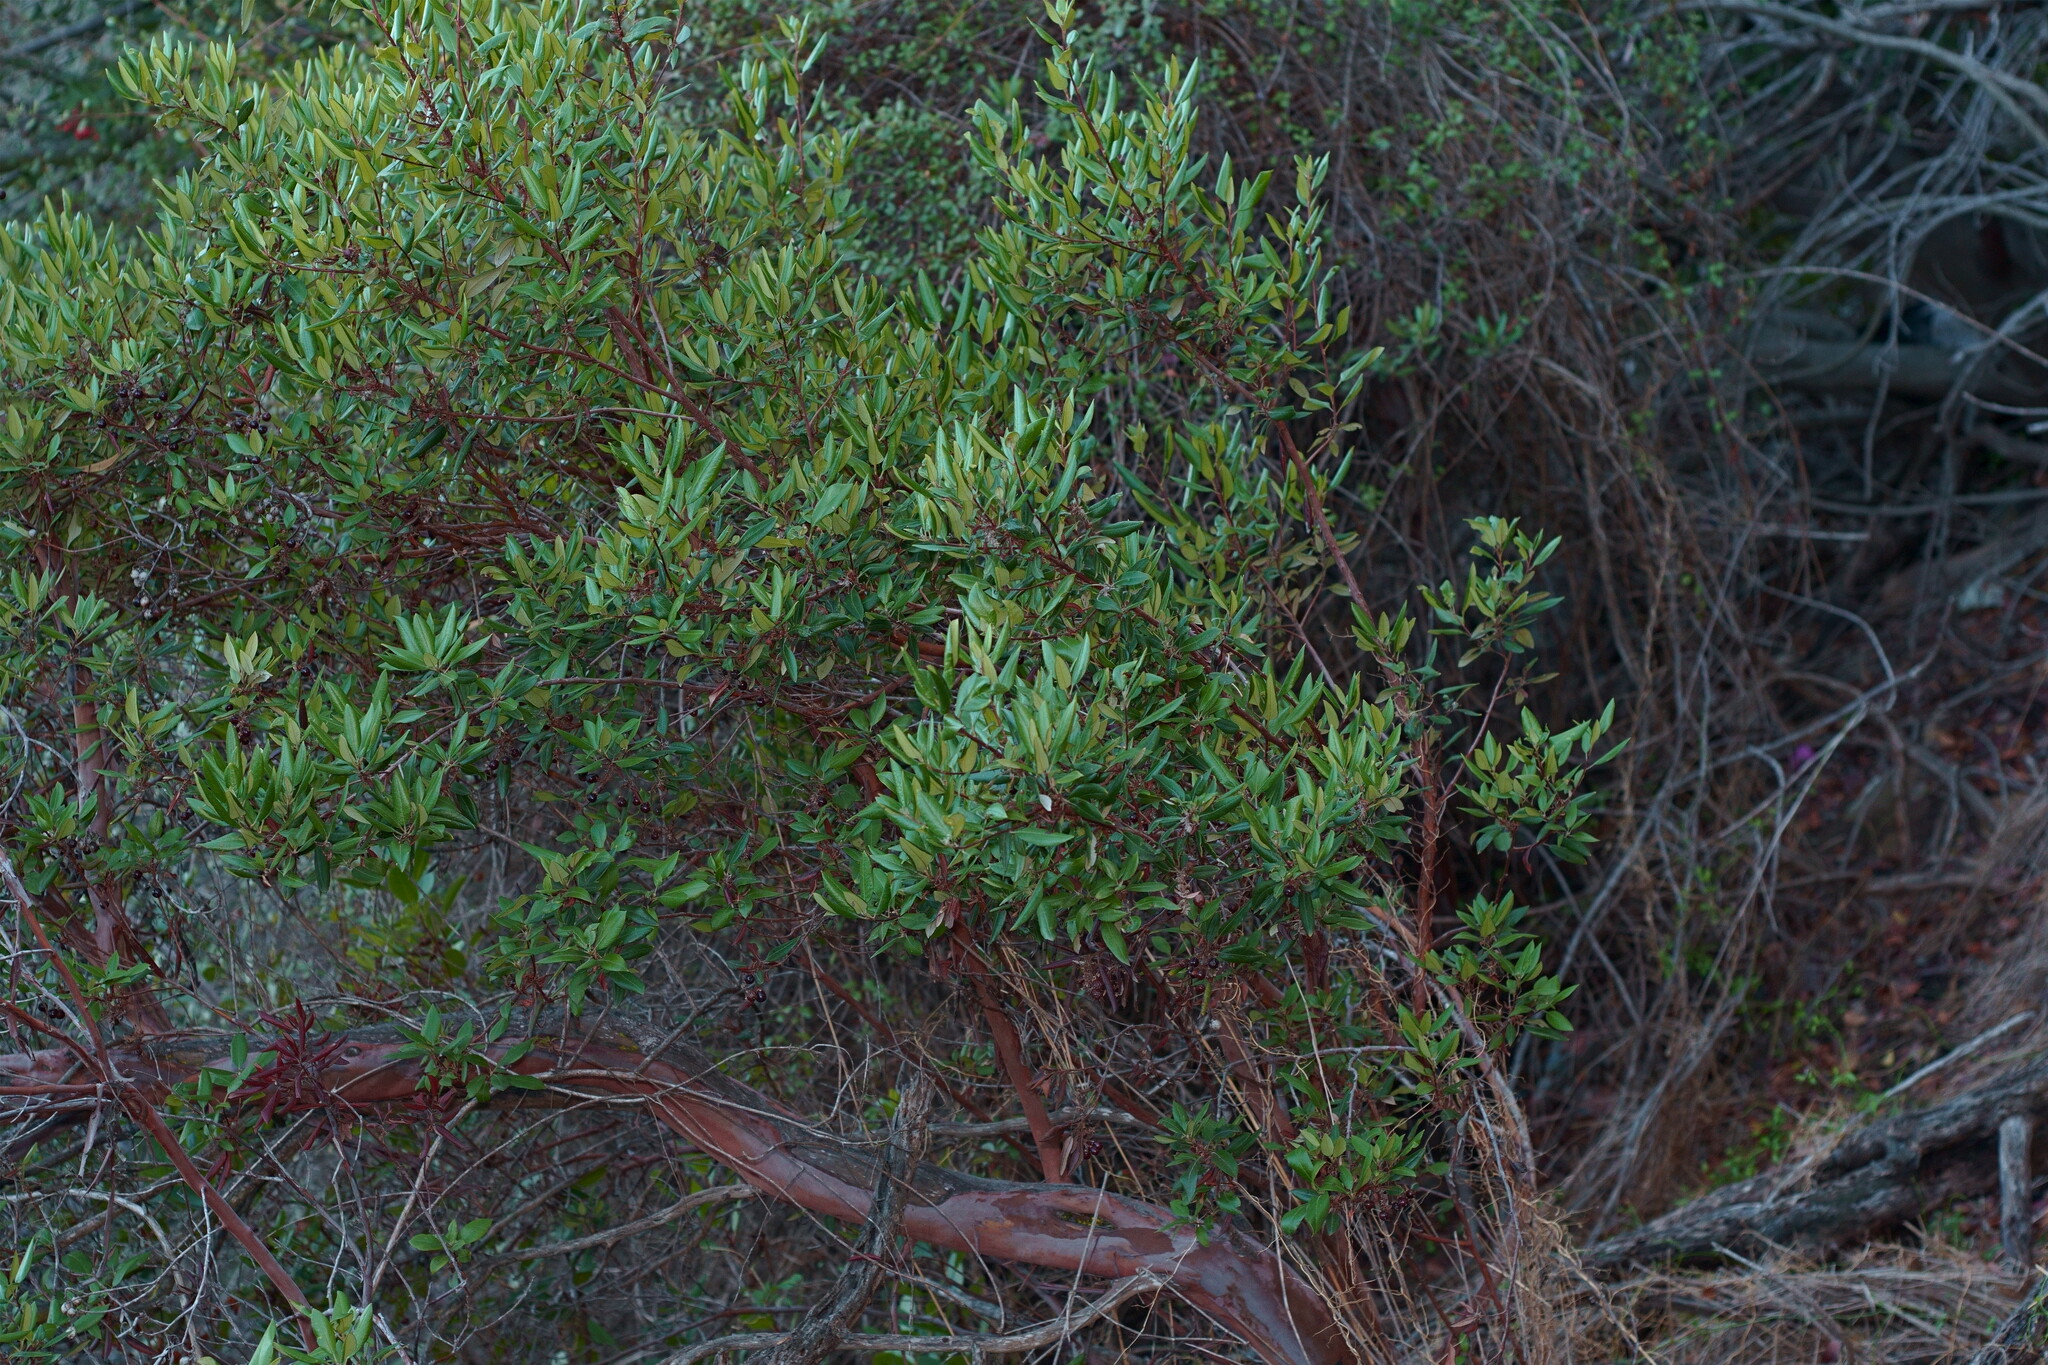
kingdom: Plantae
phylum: Tracheophyta
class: Magnoliopsida
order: Ericales
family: Ericaceae
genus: Arctostaphylos
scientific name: Arctostaphylos bicolor
